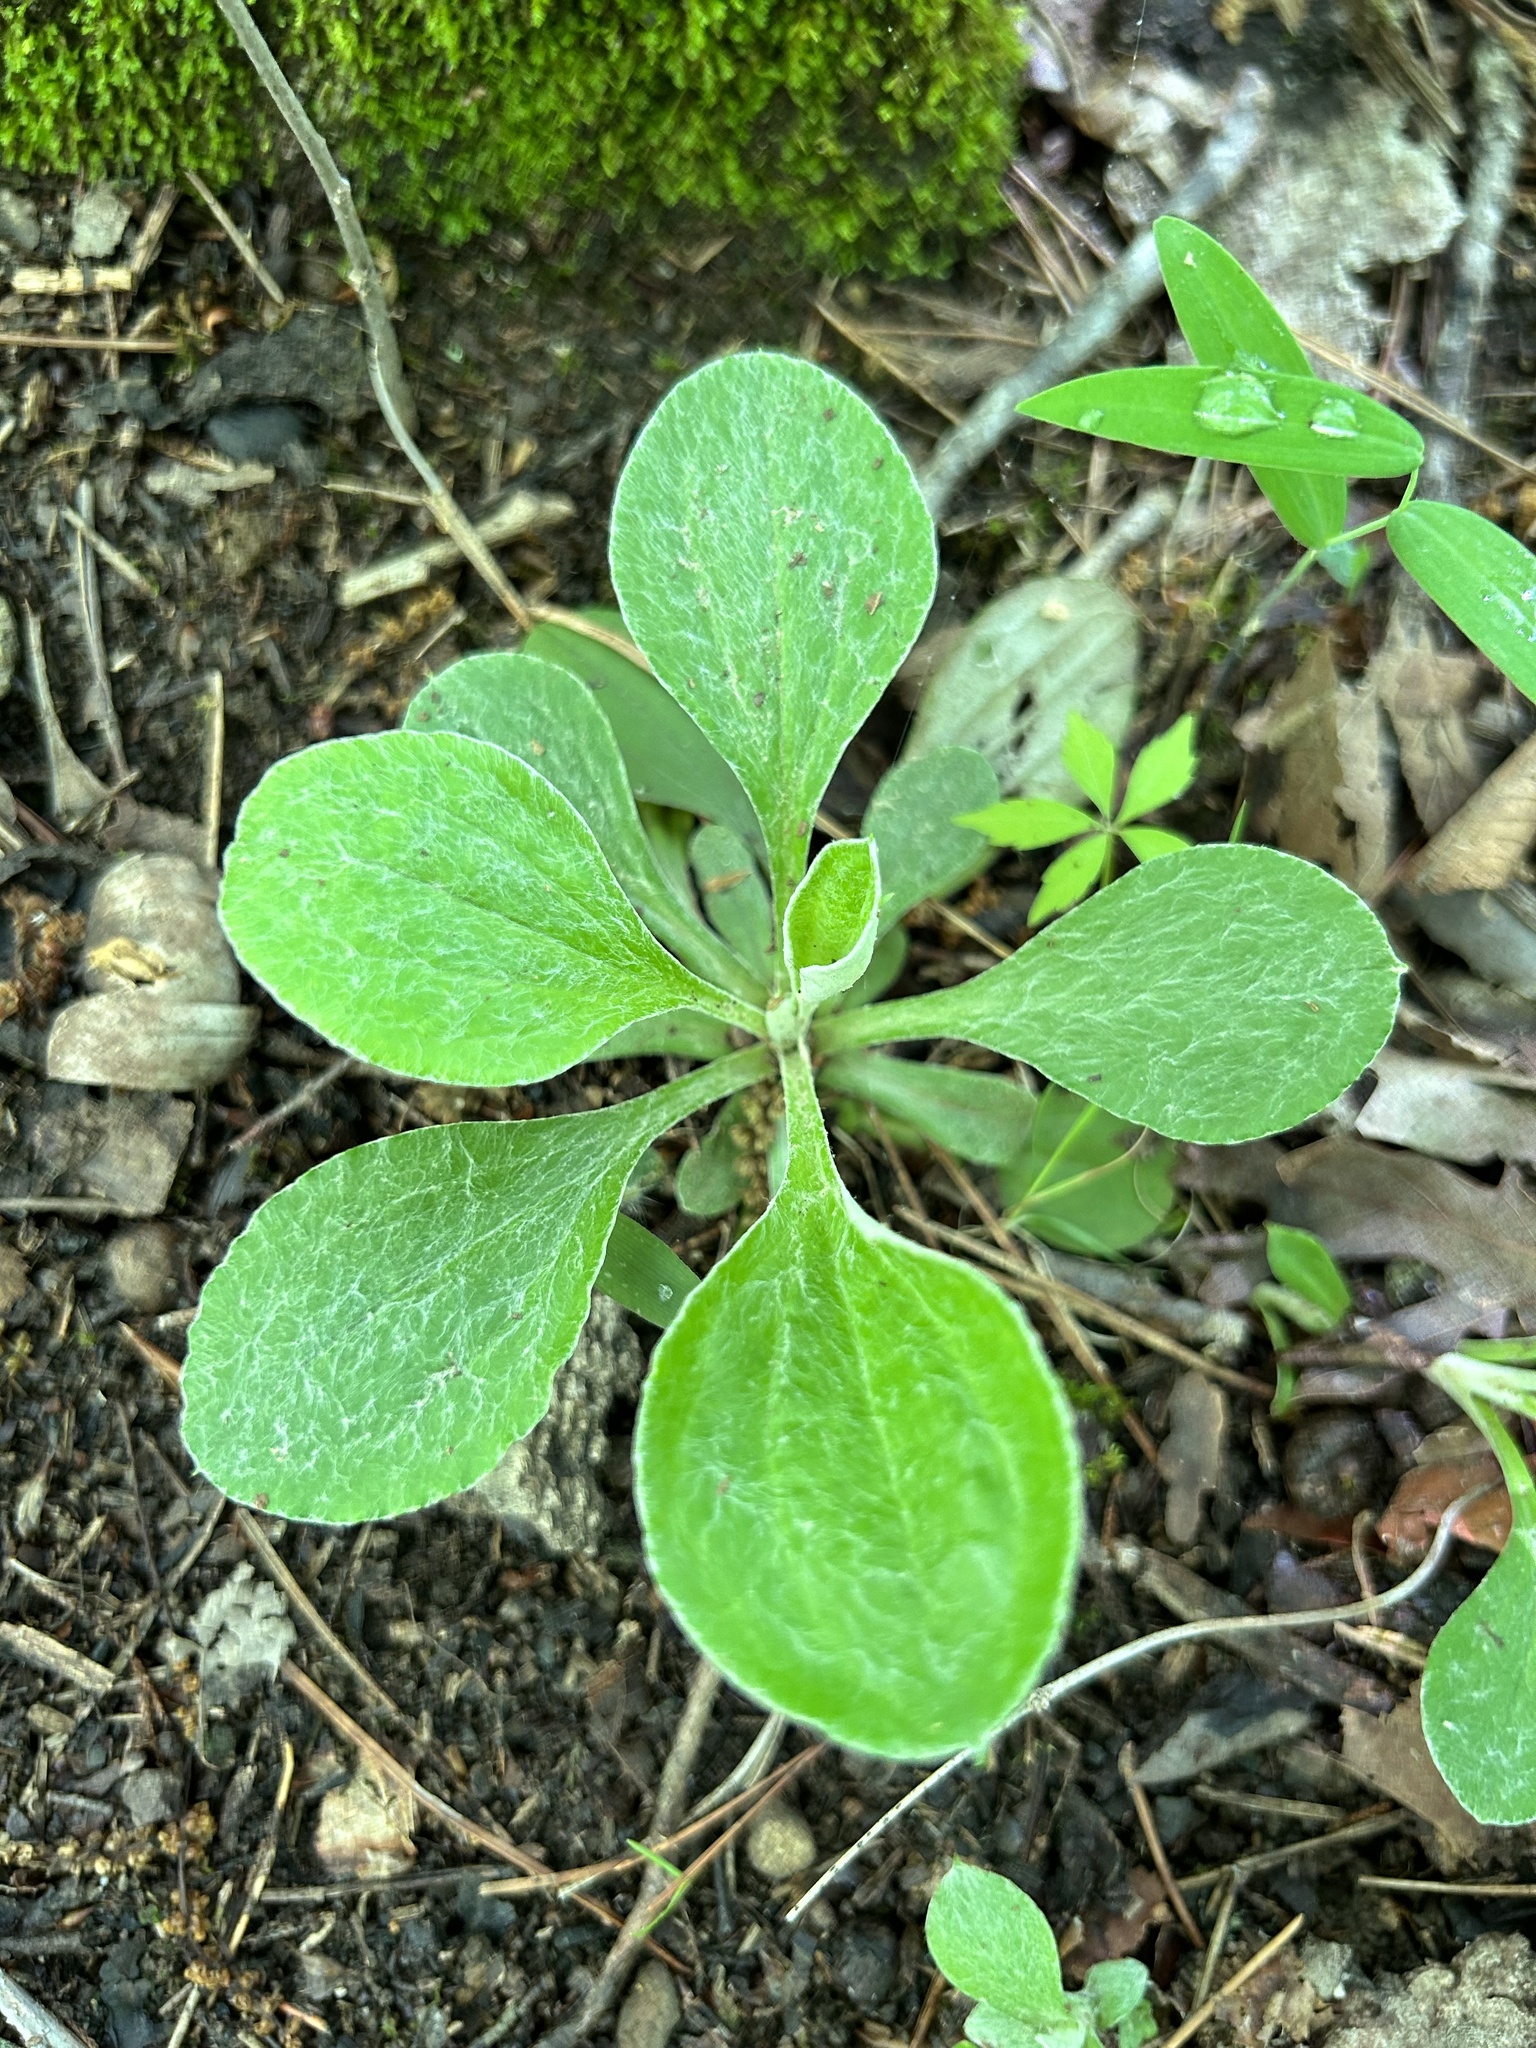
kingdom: Plantae
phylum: Tracheophyta
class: Magnoliopsida
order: Asterales
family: Asteraceae
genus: Antennaria
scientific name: Antennaria plantaginifolia
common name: Plantain-leaved pussytoes
